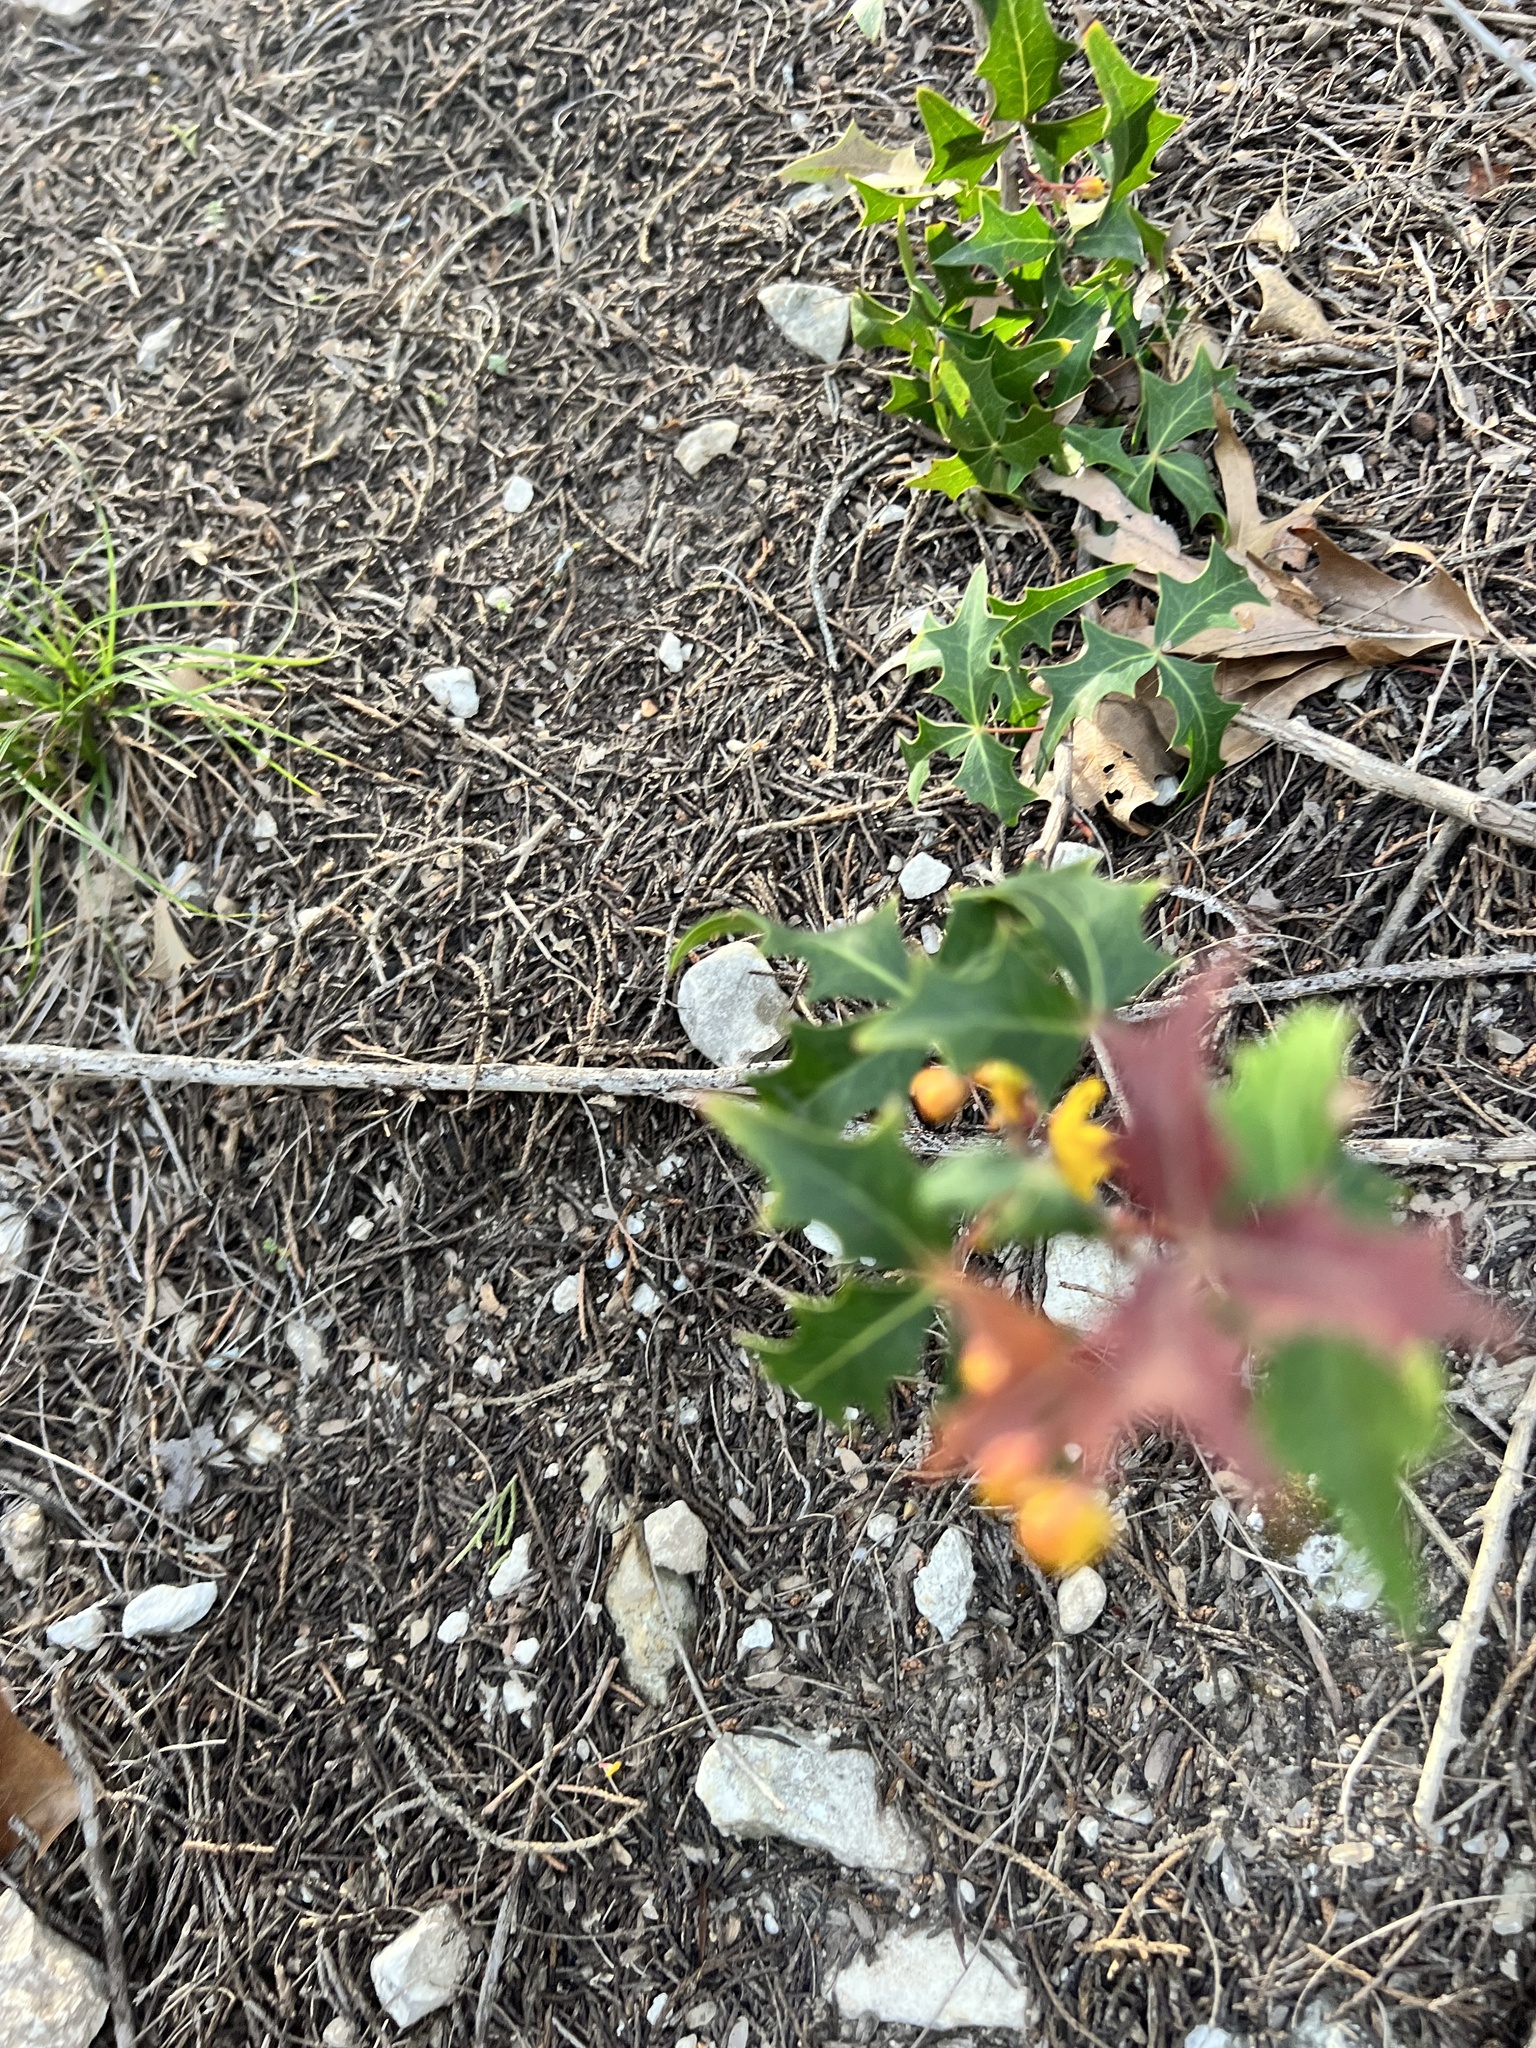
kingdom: Plantae
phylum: Tracheophyta
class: Magnoliopsida
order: Ranunculales
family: Berberidaceae
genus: Alloberberis
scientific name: Alloberberis trifoliolata
